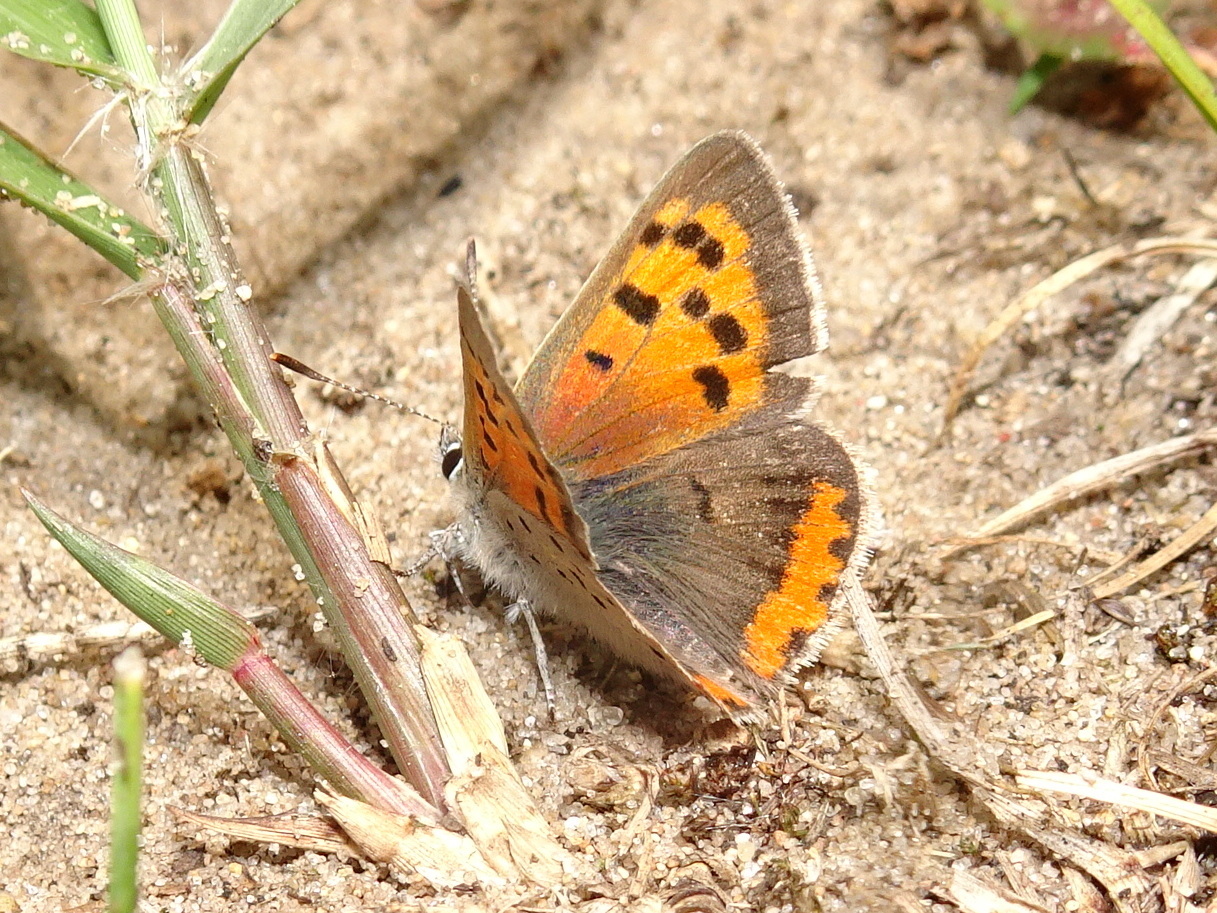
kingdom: Animalia
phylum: Arthropoda
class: Insecta
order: Lepidoptera
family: Lycaenidae
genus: Lycaena
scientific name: Lycaena hypophlaeas
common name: American copper
